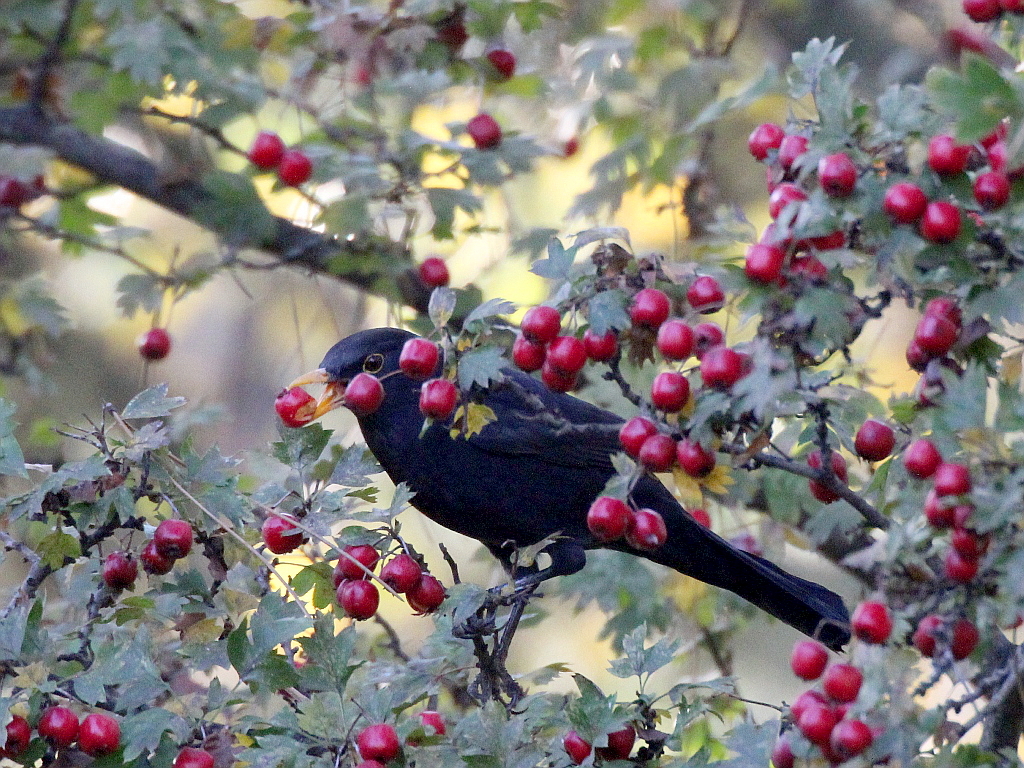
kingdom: Animalia
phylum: Chordata
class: Aves
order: Passeriformes
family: Turdidae
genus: Turdus
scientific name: Turdus merula
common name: Common blackbird
